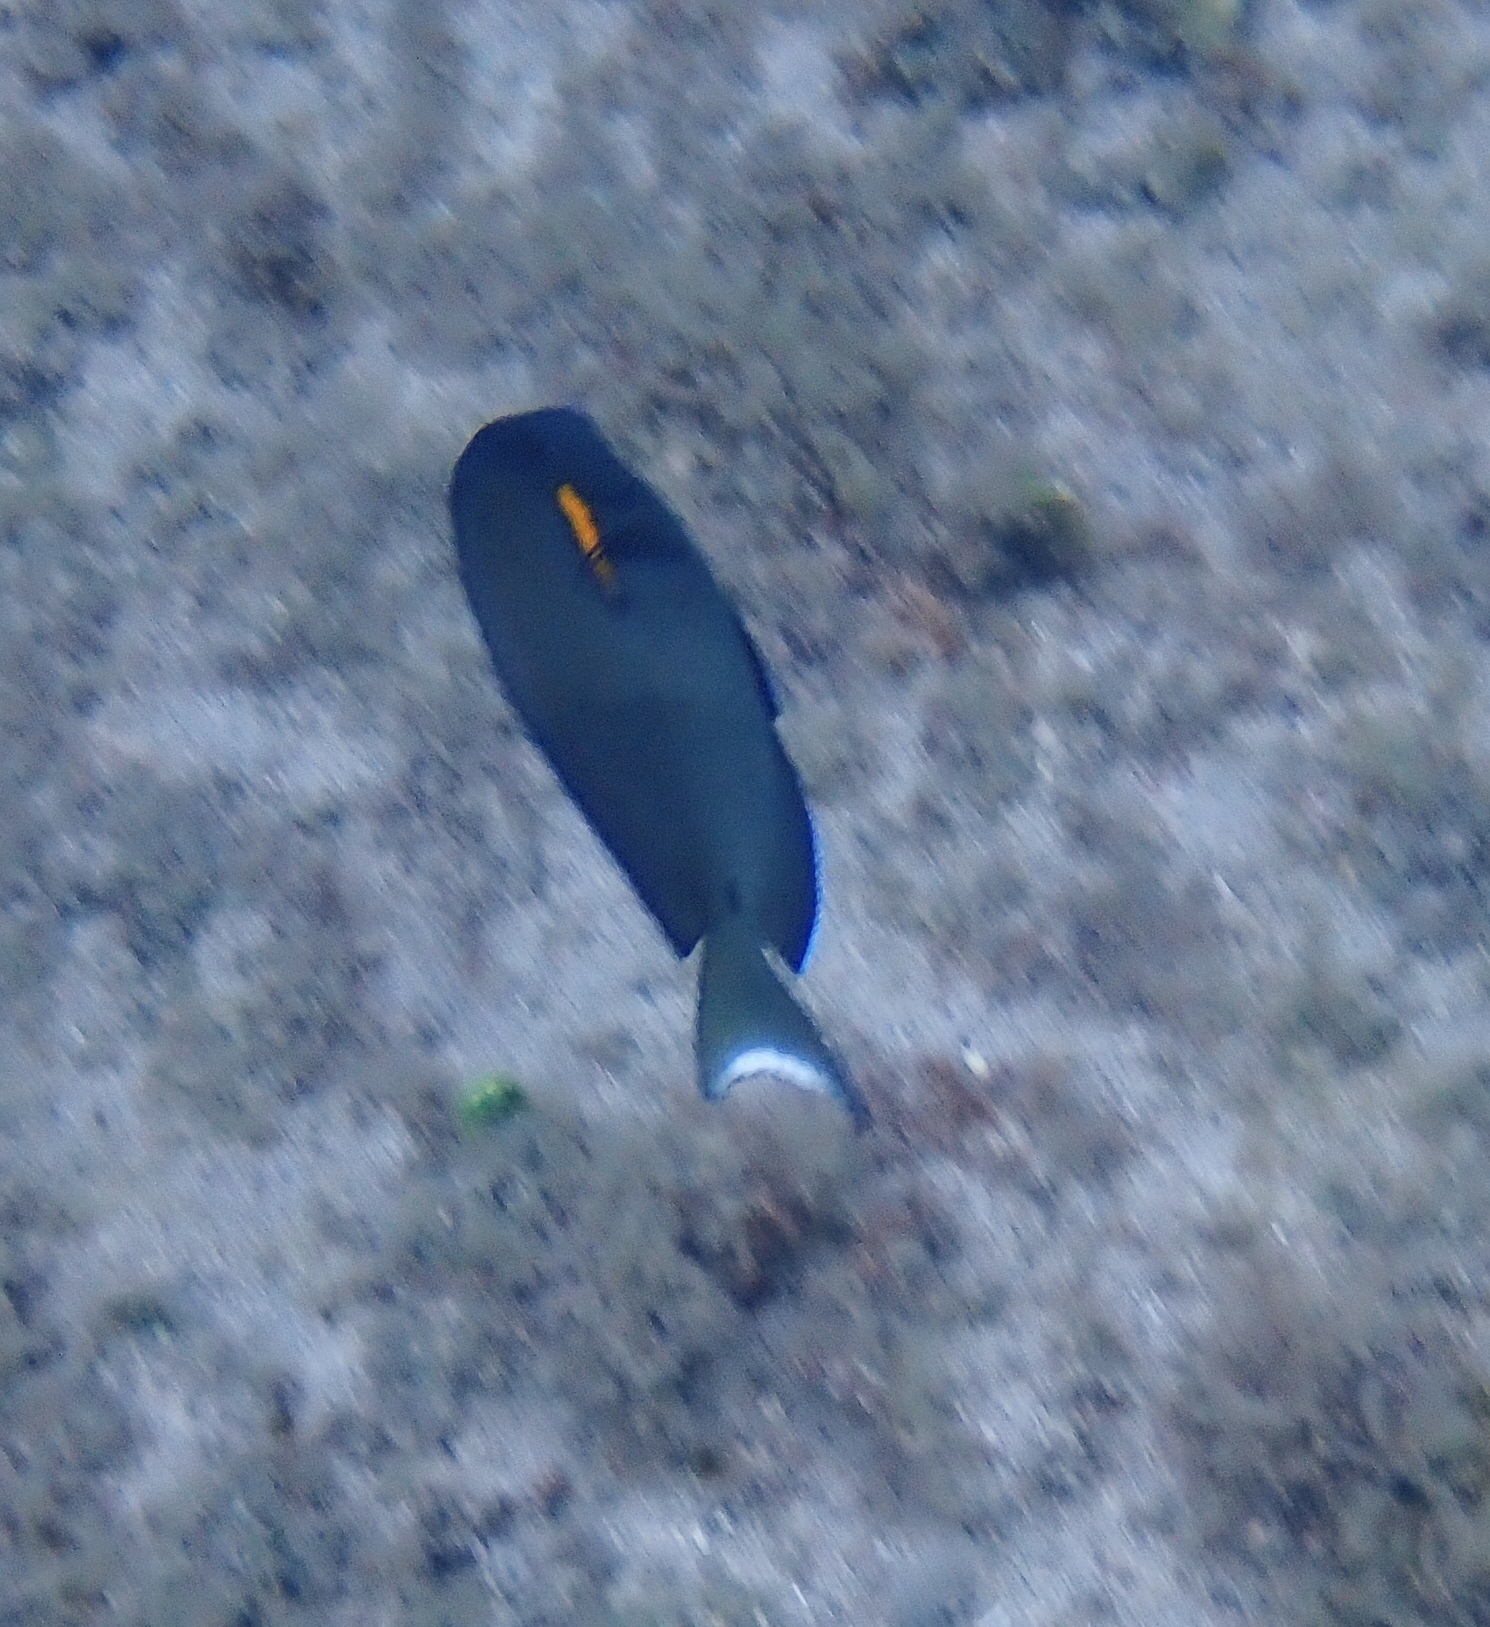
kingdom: Animalia
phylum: Chordata
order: Perciformes
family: Acanthuridae
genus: Acanthurus
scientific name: Acanthurus olivaceus
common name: Gendarme fish
